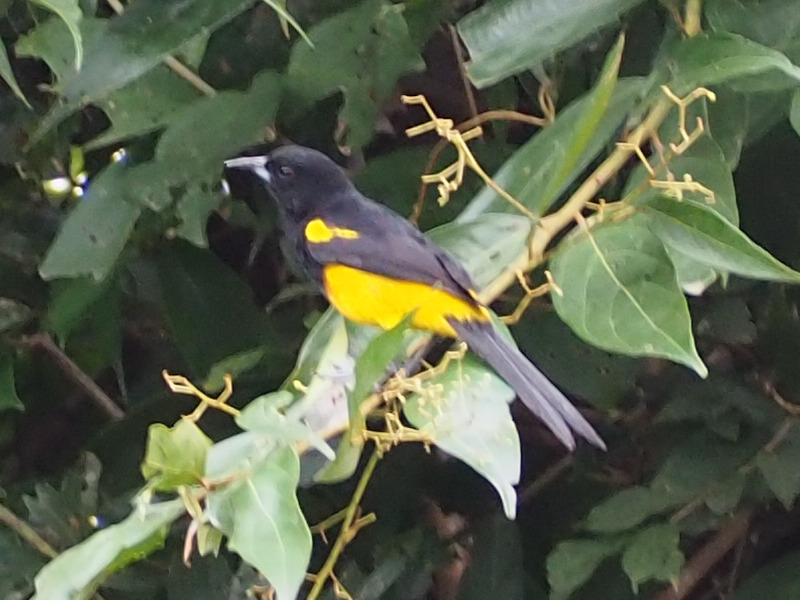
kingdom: Animalia
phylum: Chordata
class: Aves
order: Passeriformes
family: Icteridae
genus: Icterus
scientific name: Icterus prosthemelas
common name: Black-cowled oriole
